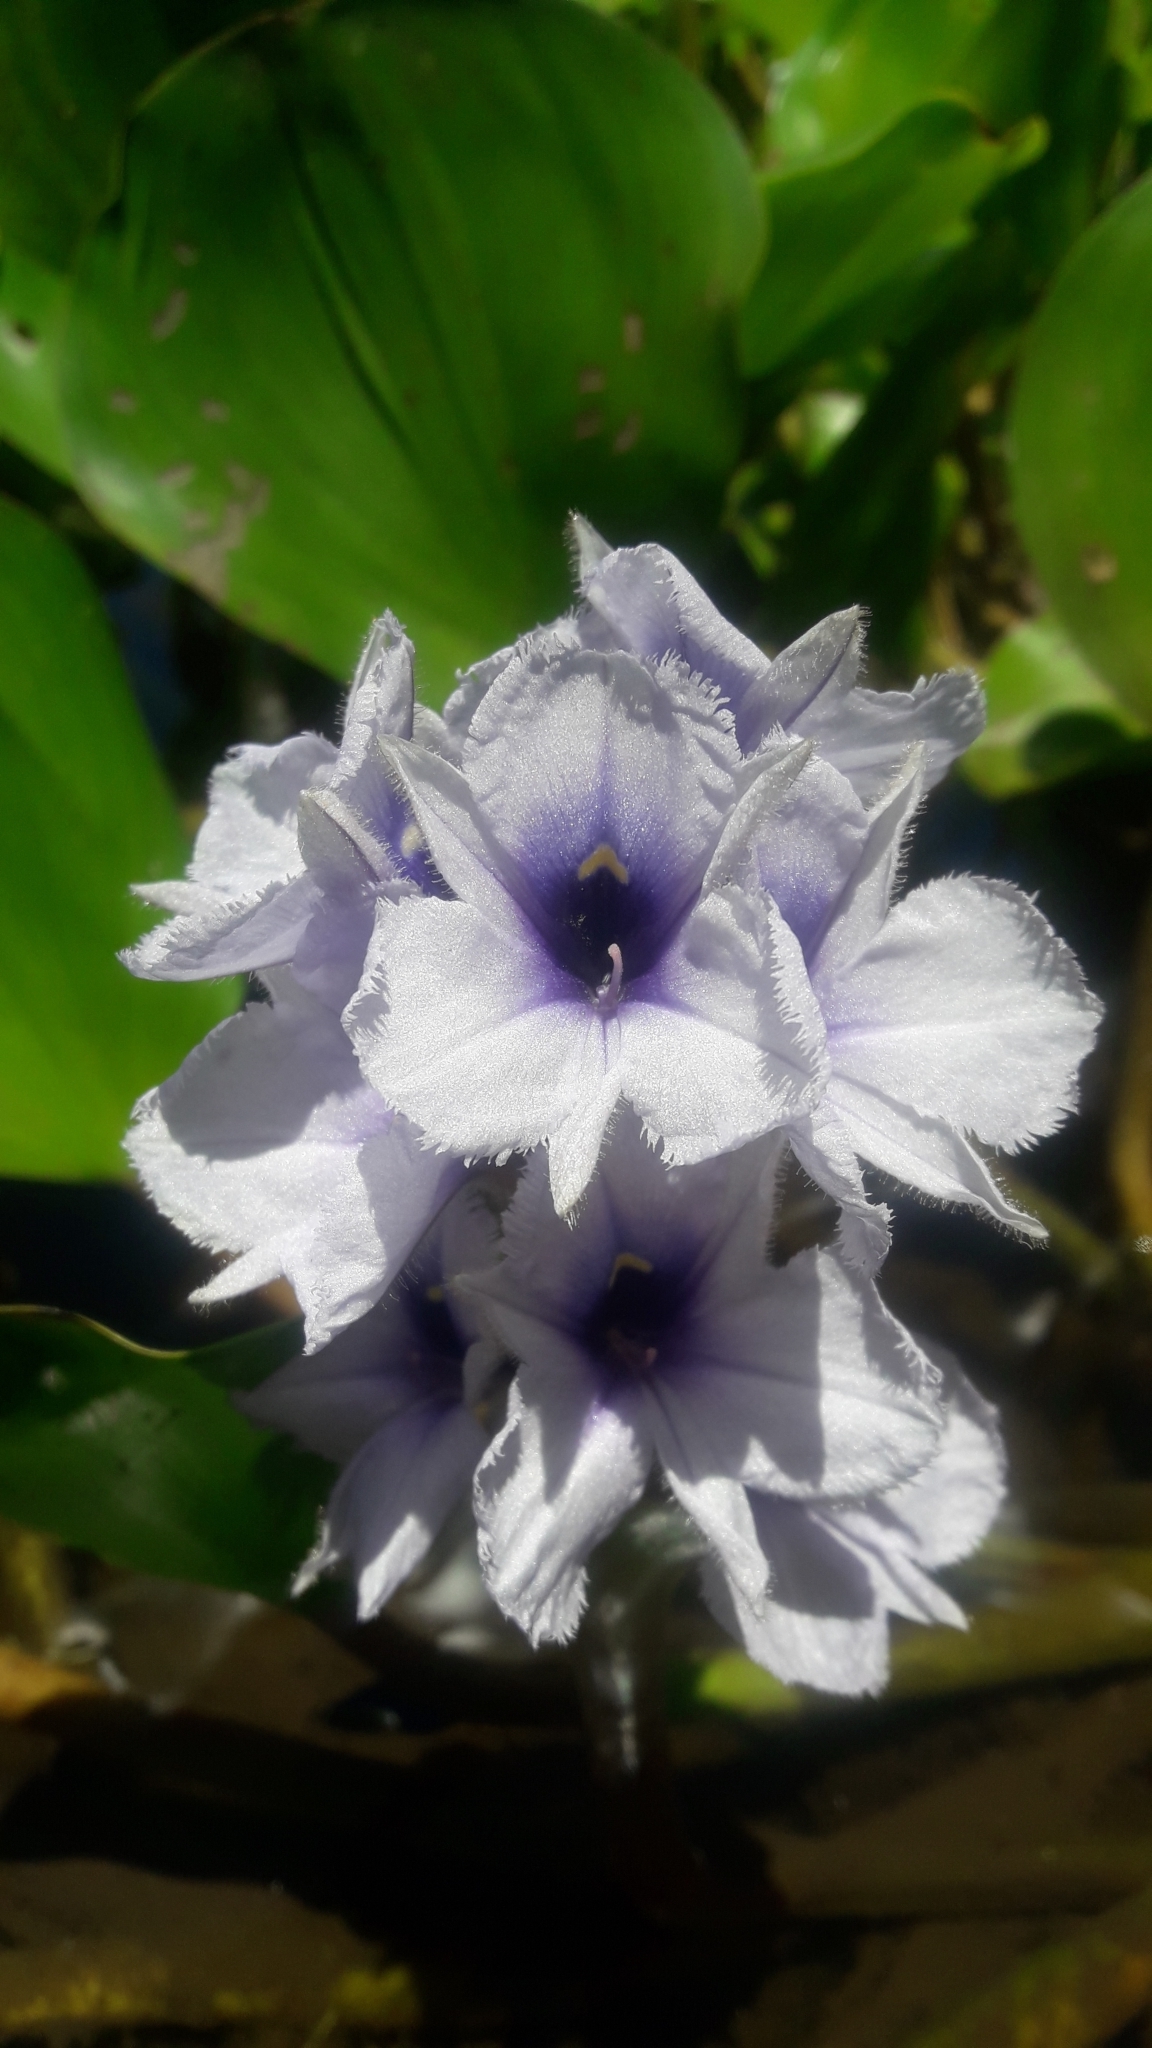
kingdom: Plantae
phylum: Tracheophyta
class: Liliopsida
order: Commelinales
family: Pontederiaceae
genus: Pontederia
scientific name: Pontederia azurea
